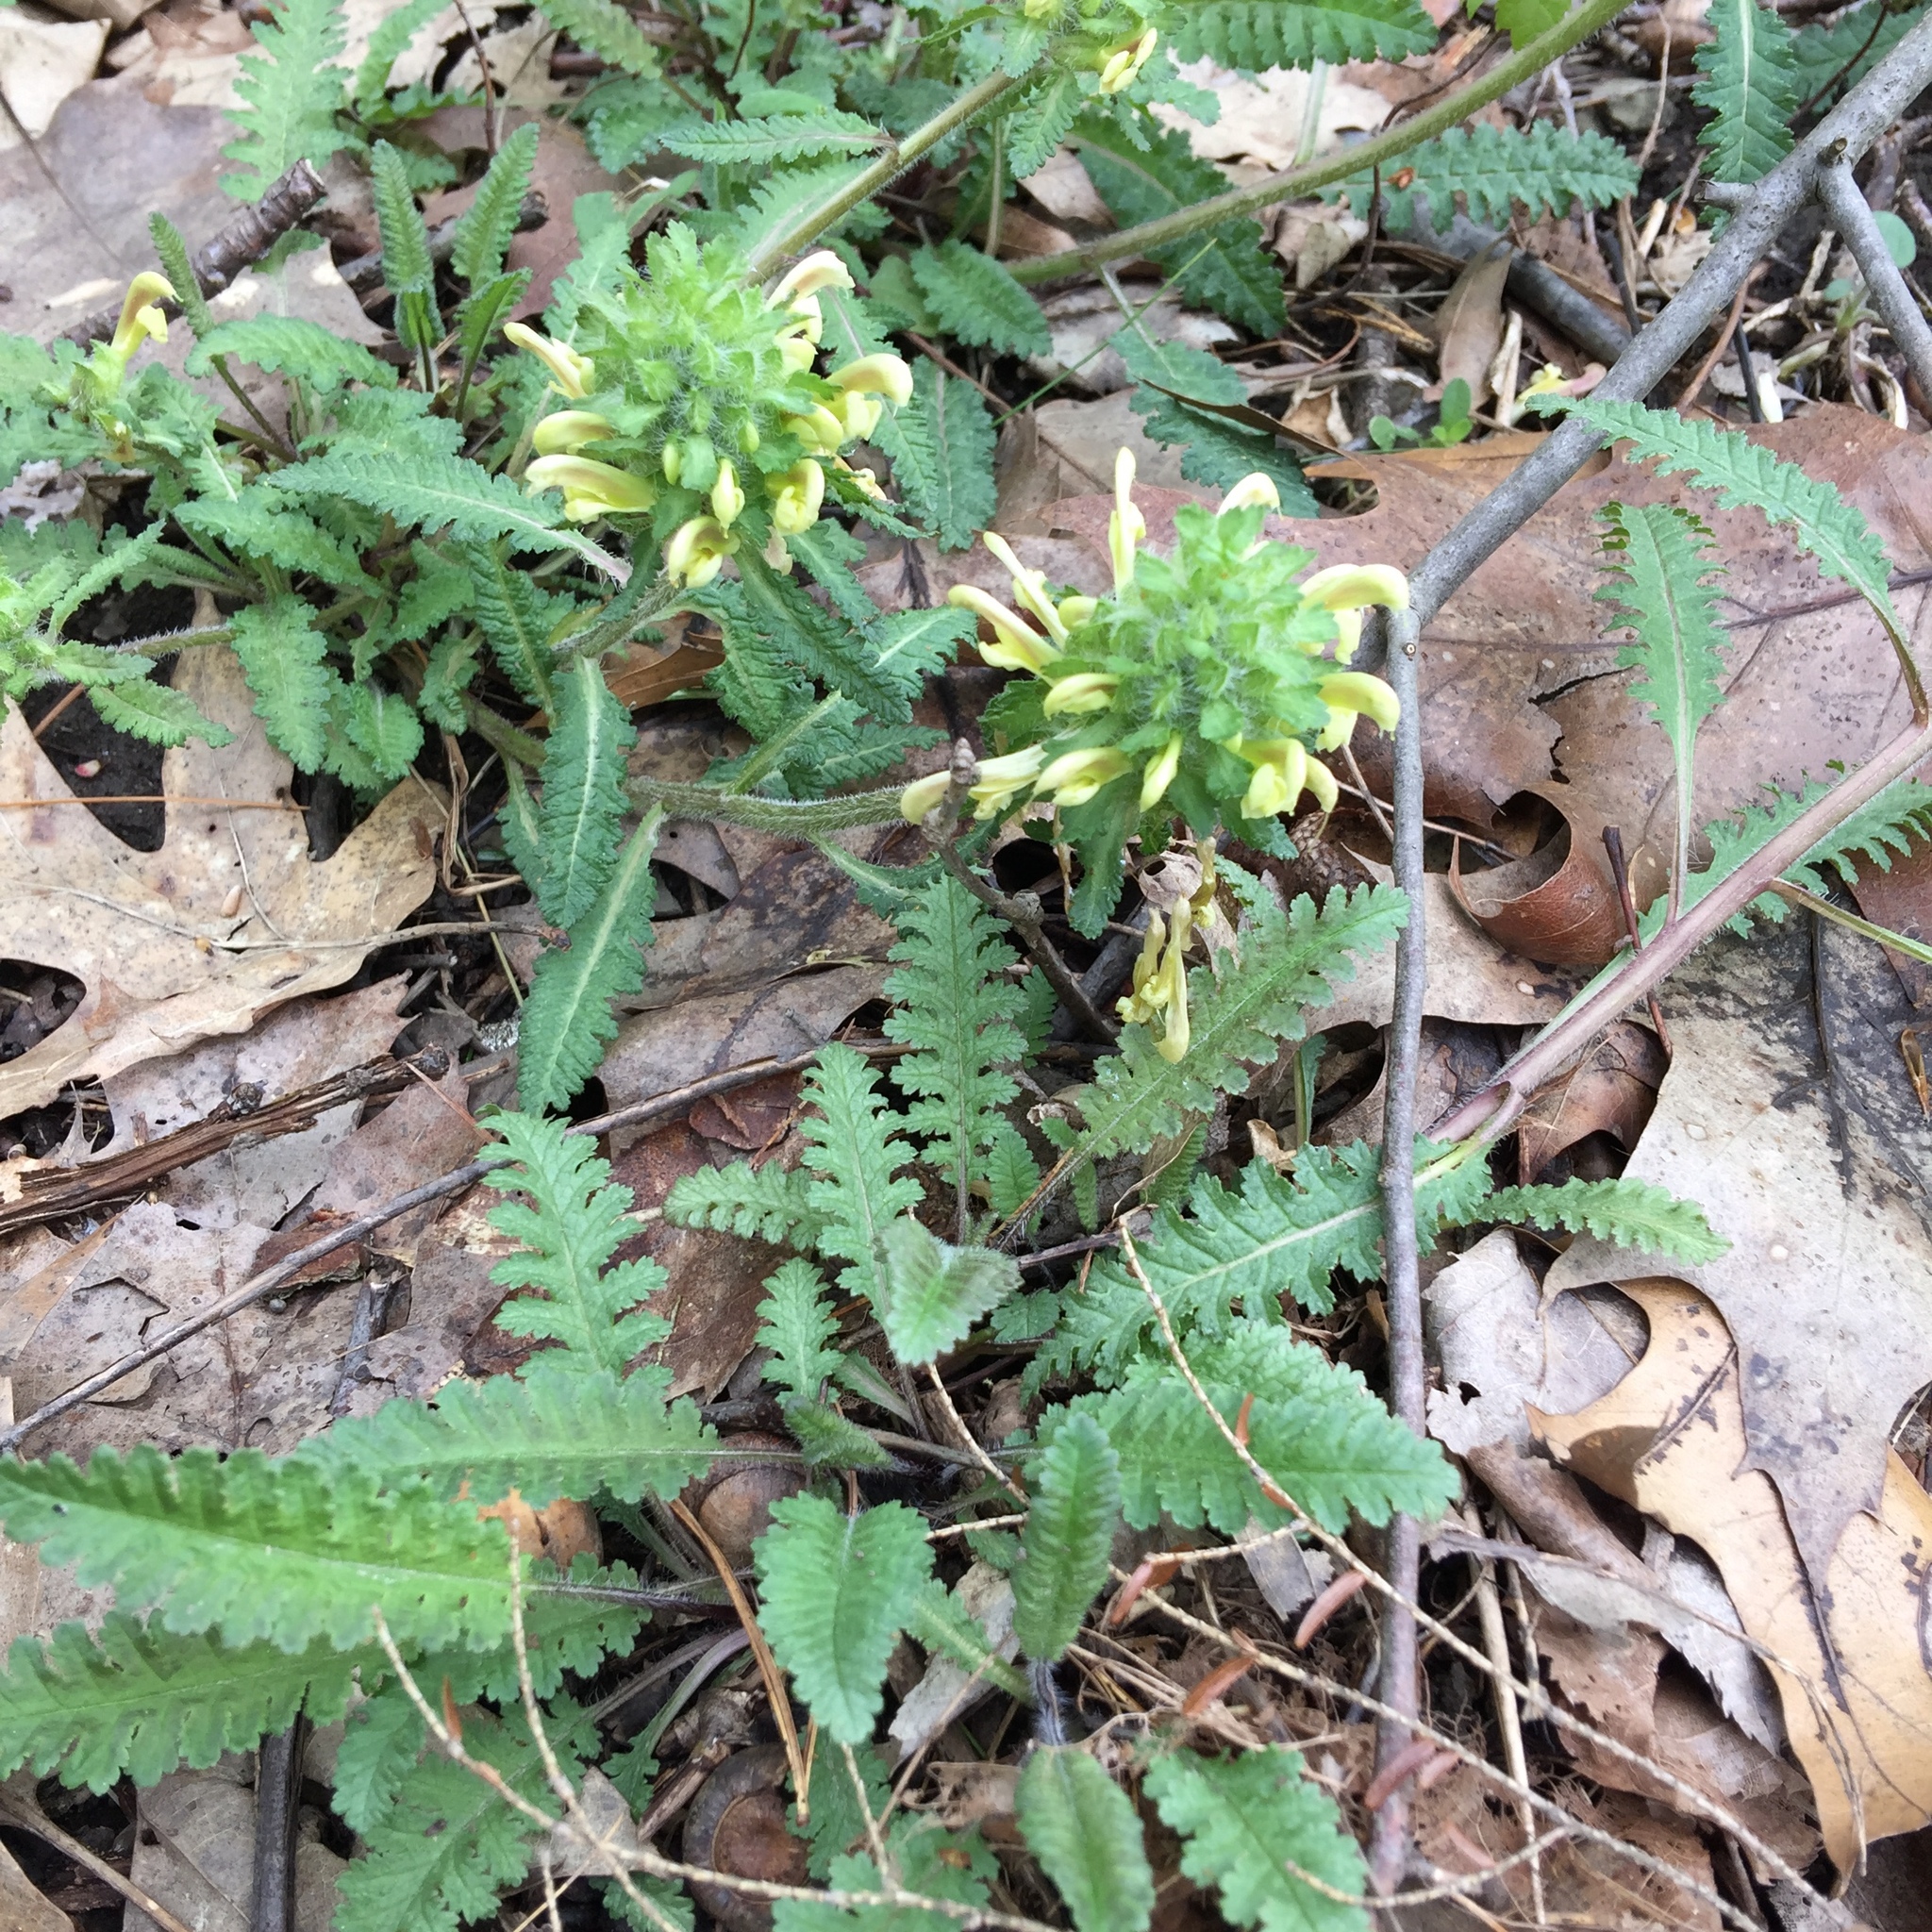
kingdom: Plantae
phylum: Tracheophyta
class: Magnoliopsida
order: Lamiales
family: Orobanchaceae
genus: Pedicularis
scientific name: Pedicularis canadensis
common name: Early lousewort
